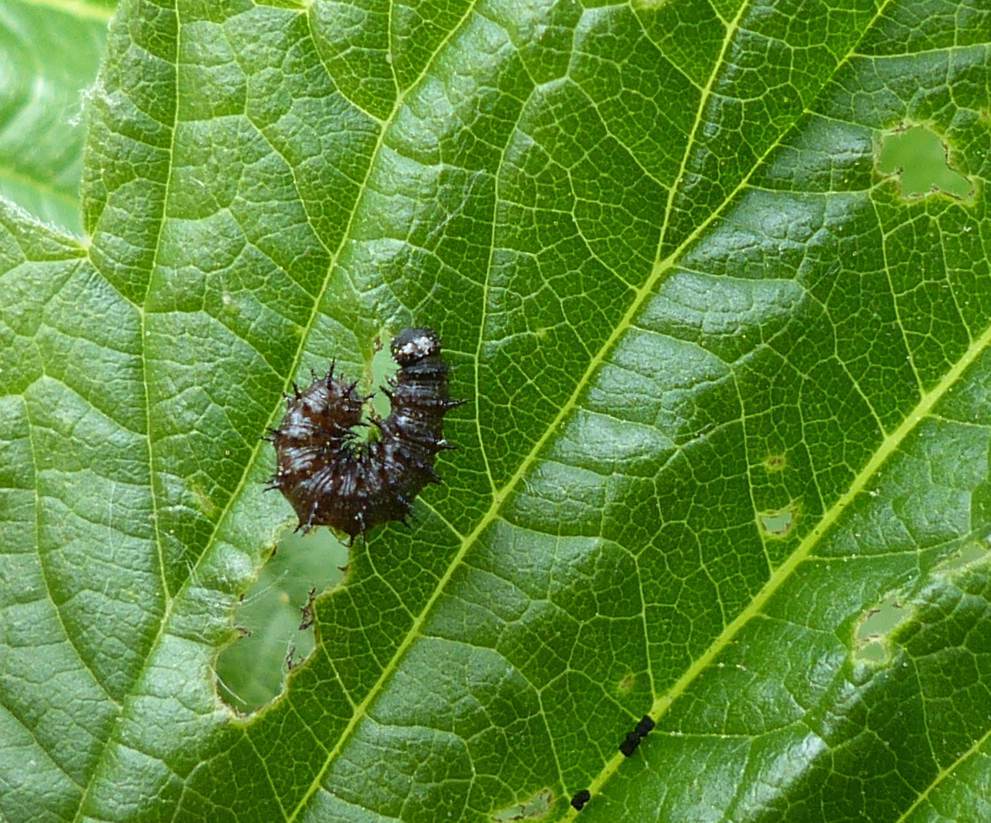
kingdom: Animalia
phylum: Arthropoda
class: Insecta
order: Lepidoptera
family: Nymphalidae
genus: Vanessa
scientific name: Vanessa atalanta
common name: Red admiral
